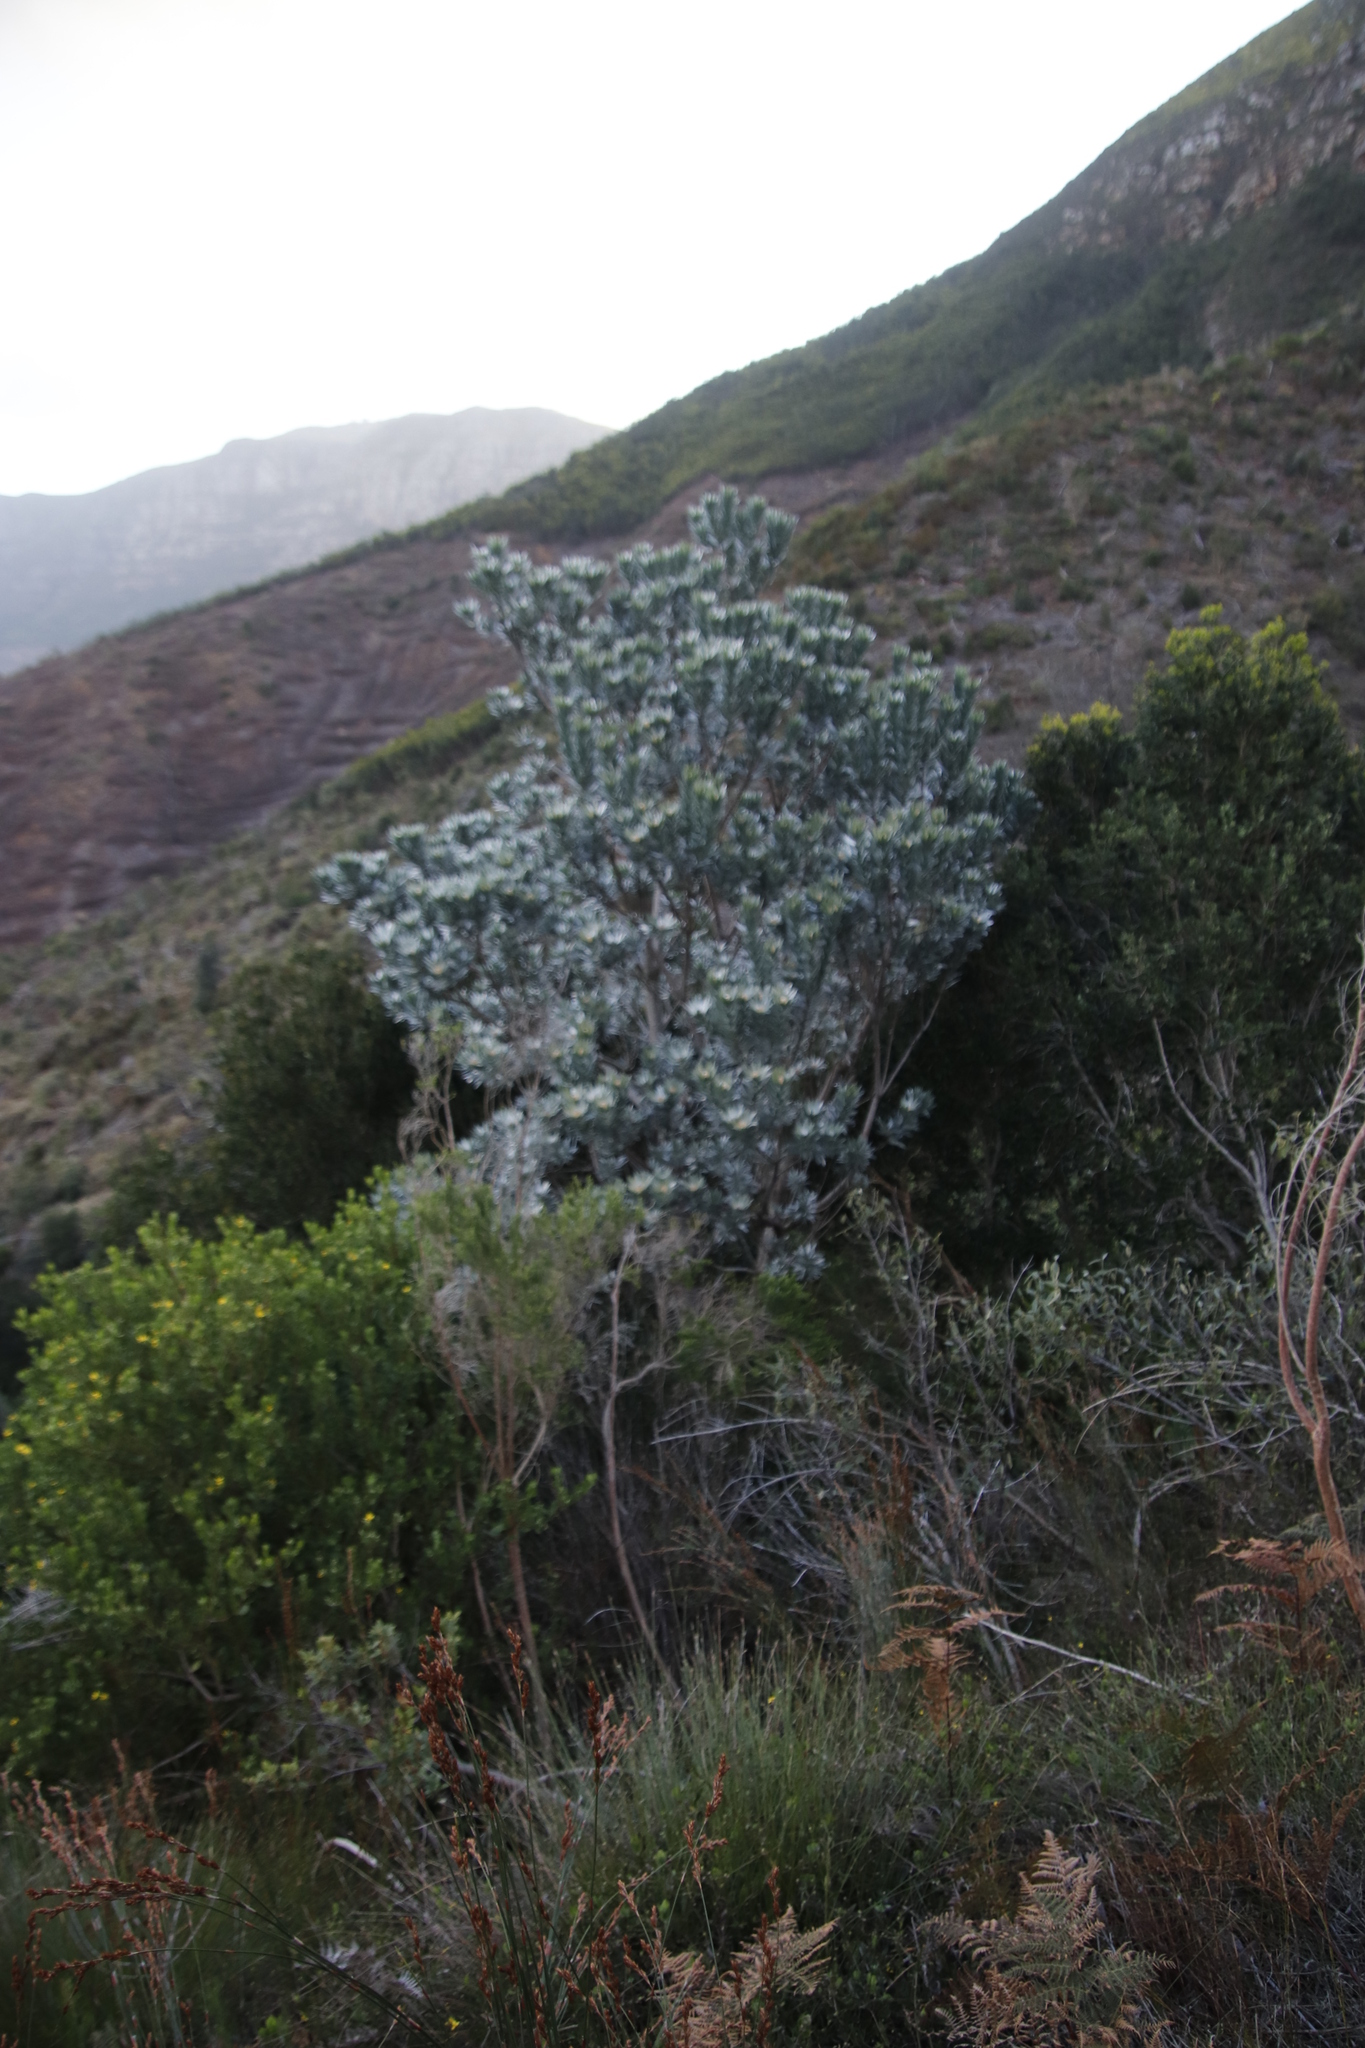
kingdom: Plantae
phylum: Tracheophyta
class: Magnoliopsida
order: Proteales
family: Proteaceae
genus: Leucadendron
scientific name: Leucadendron argenteum
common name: Cape silver tree
